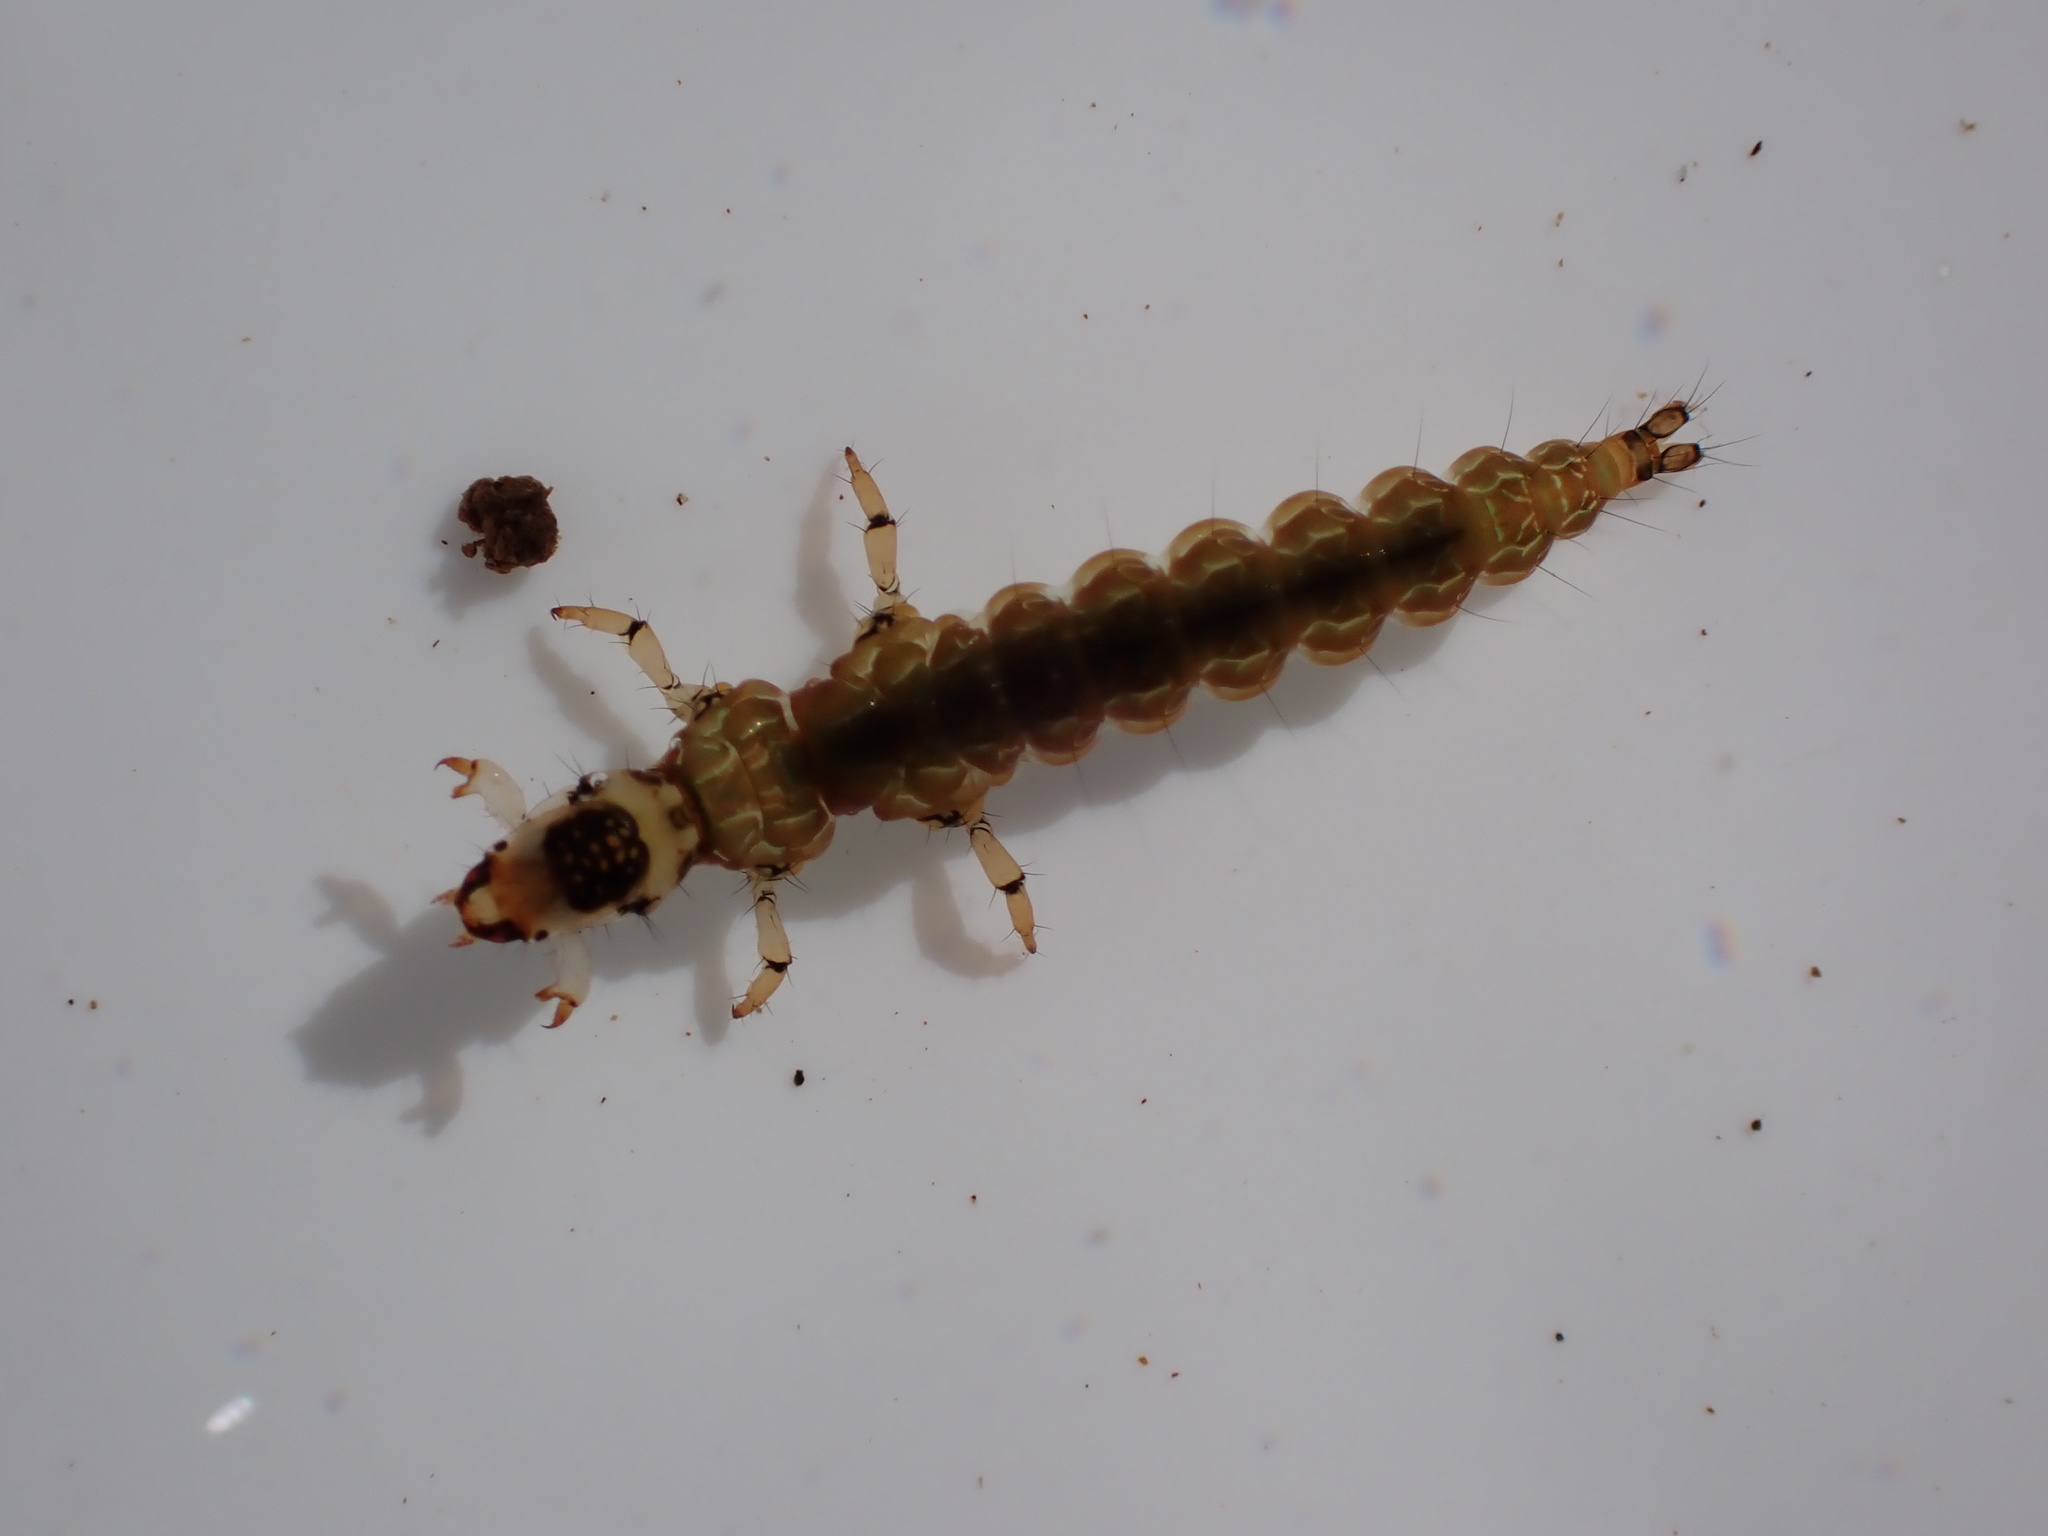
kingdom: Animalia
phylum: Arthropoda
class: Insecta
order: Trichoptera
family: Hydrobiosidae
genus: Costachorema
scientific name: Costachorema callistum
